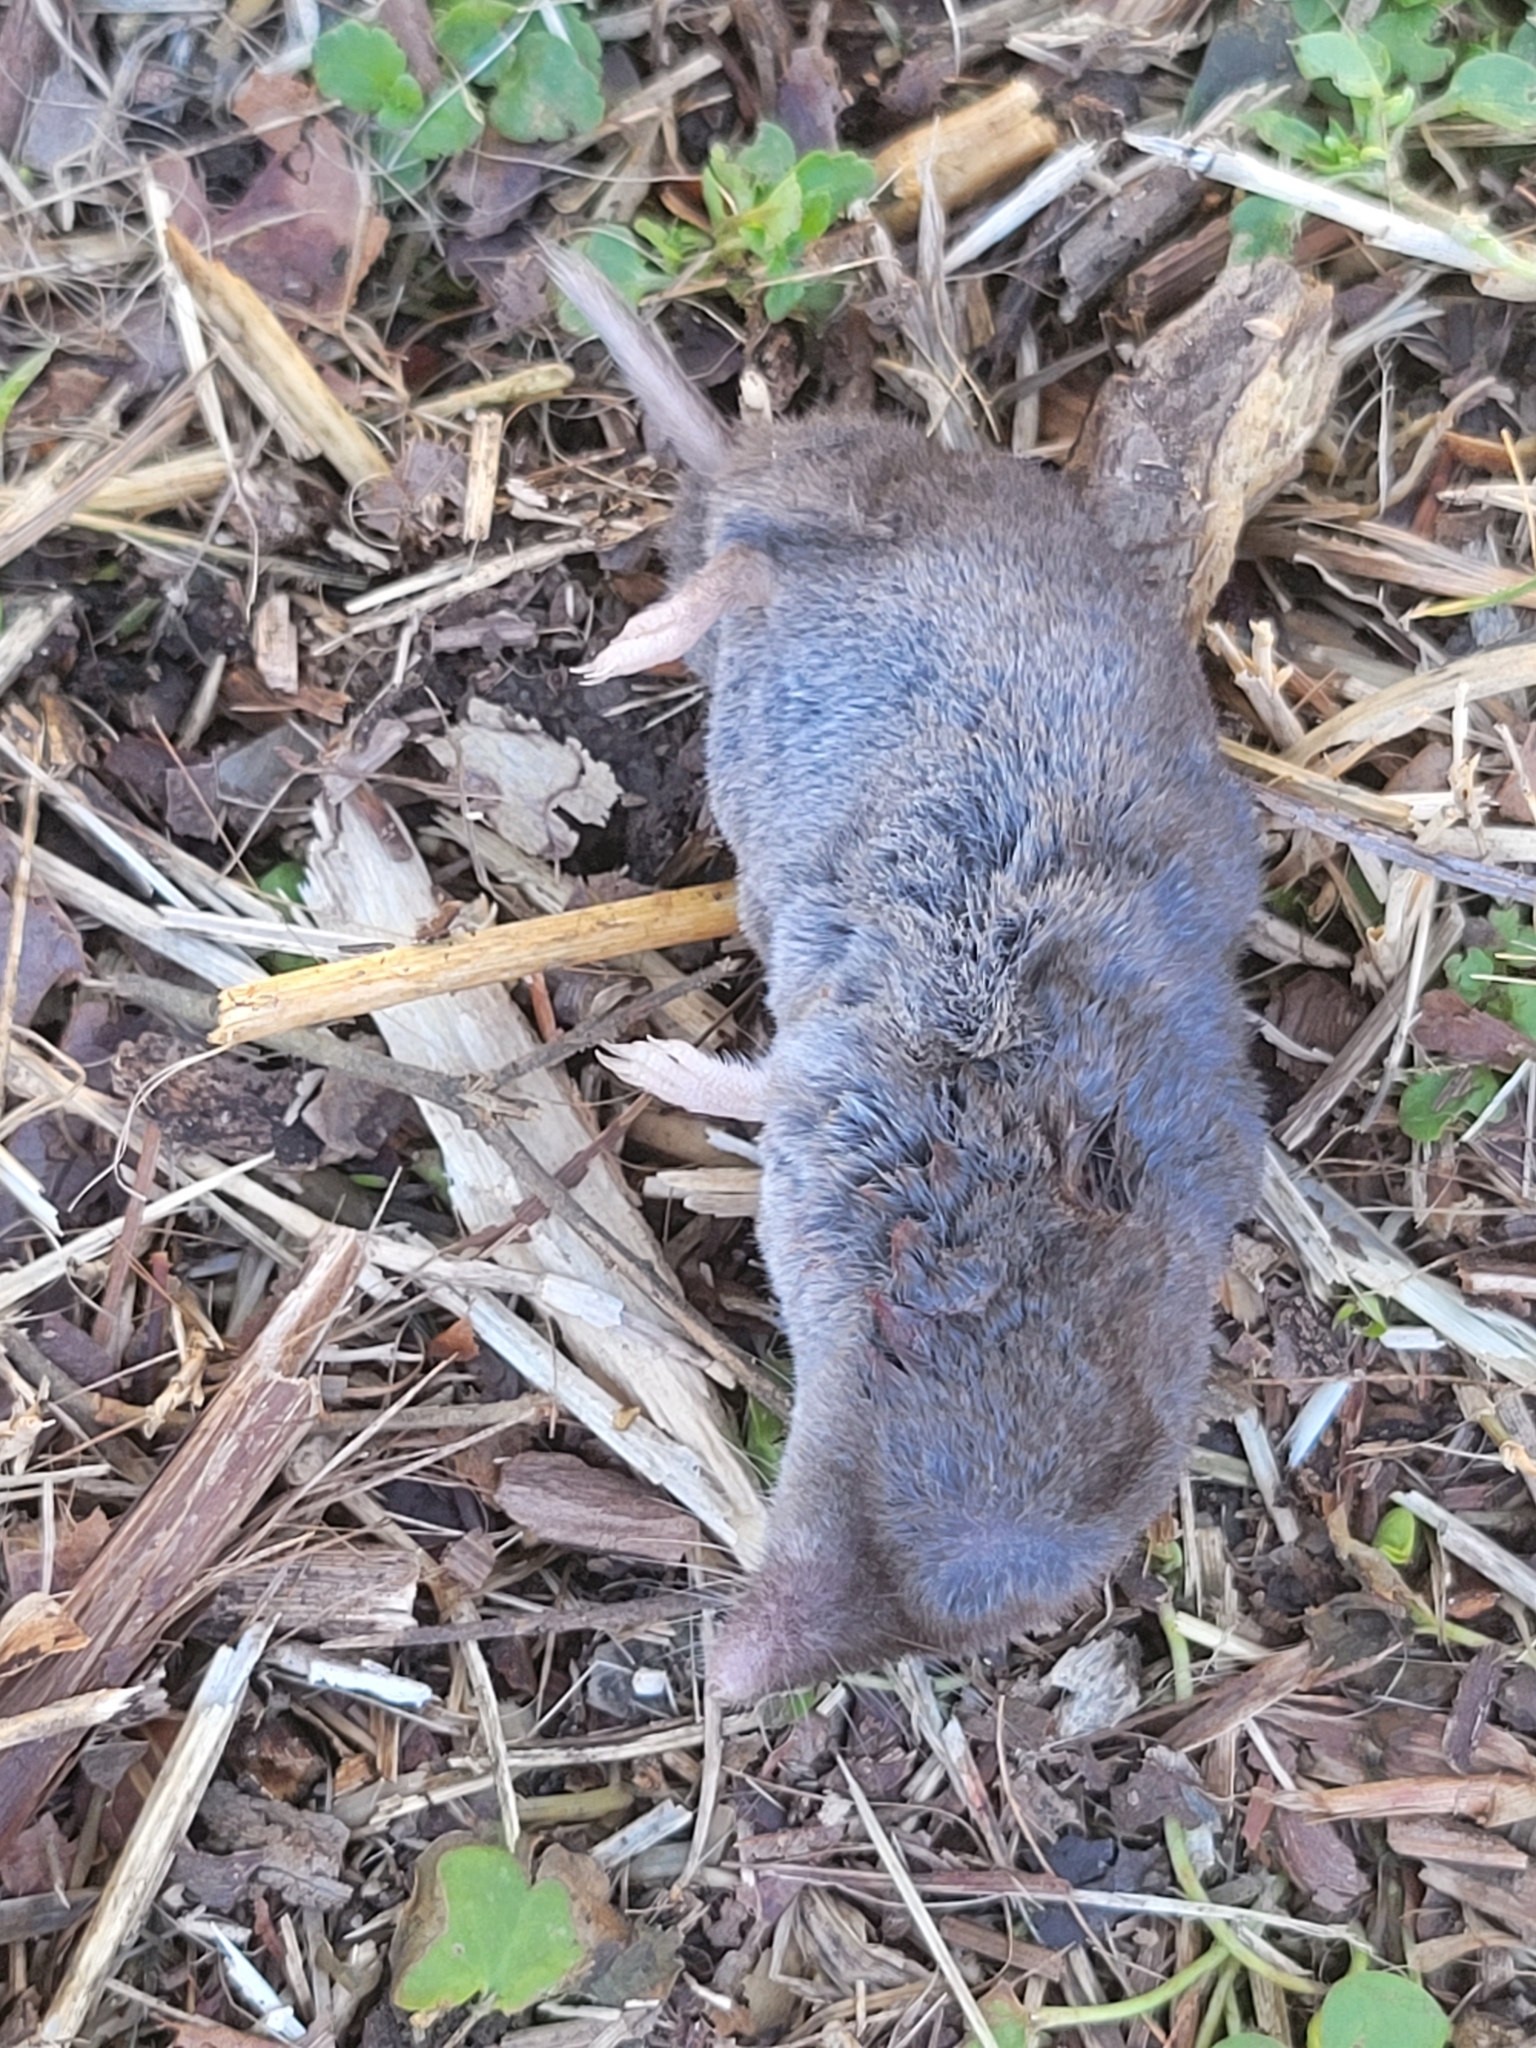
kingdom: Animalia
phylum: Chordata
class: Mammalia
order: Soricomorpha
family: Soricidae
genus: Blarina
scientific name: Blarina brevicauda
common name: Northern short-tailed shrew
